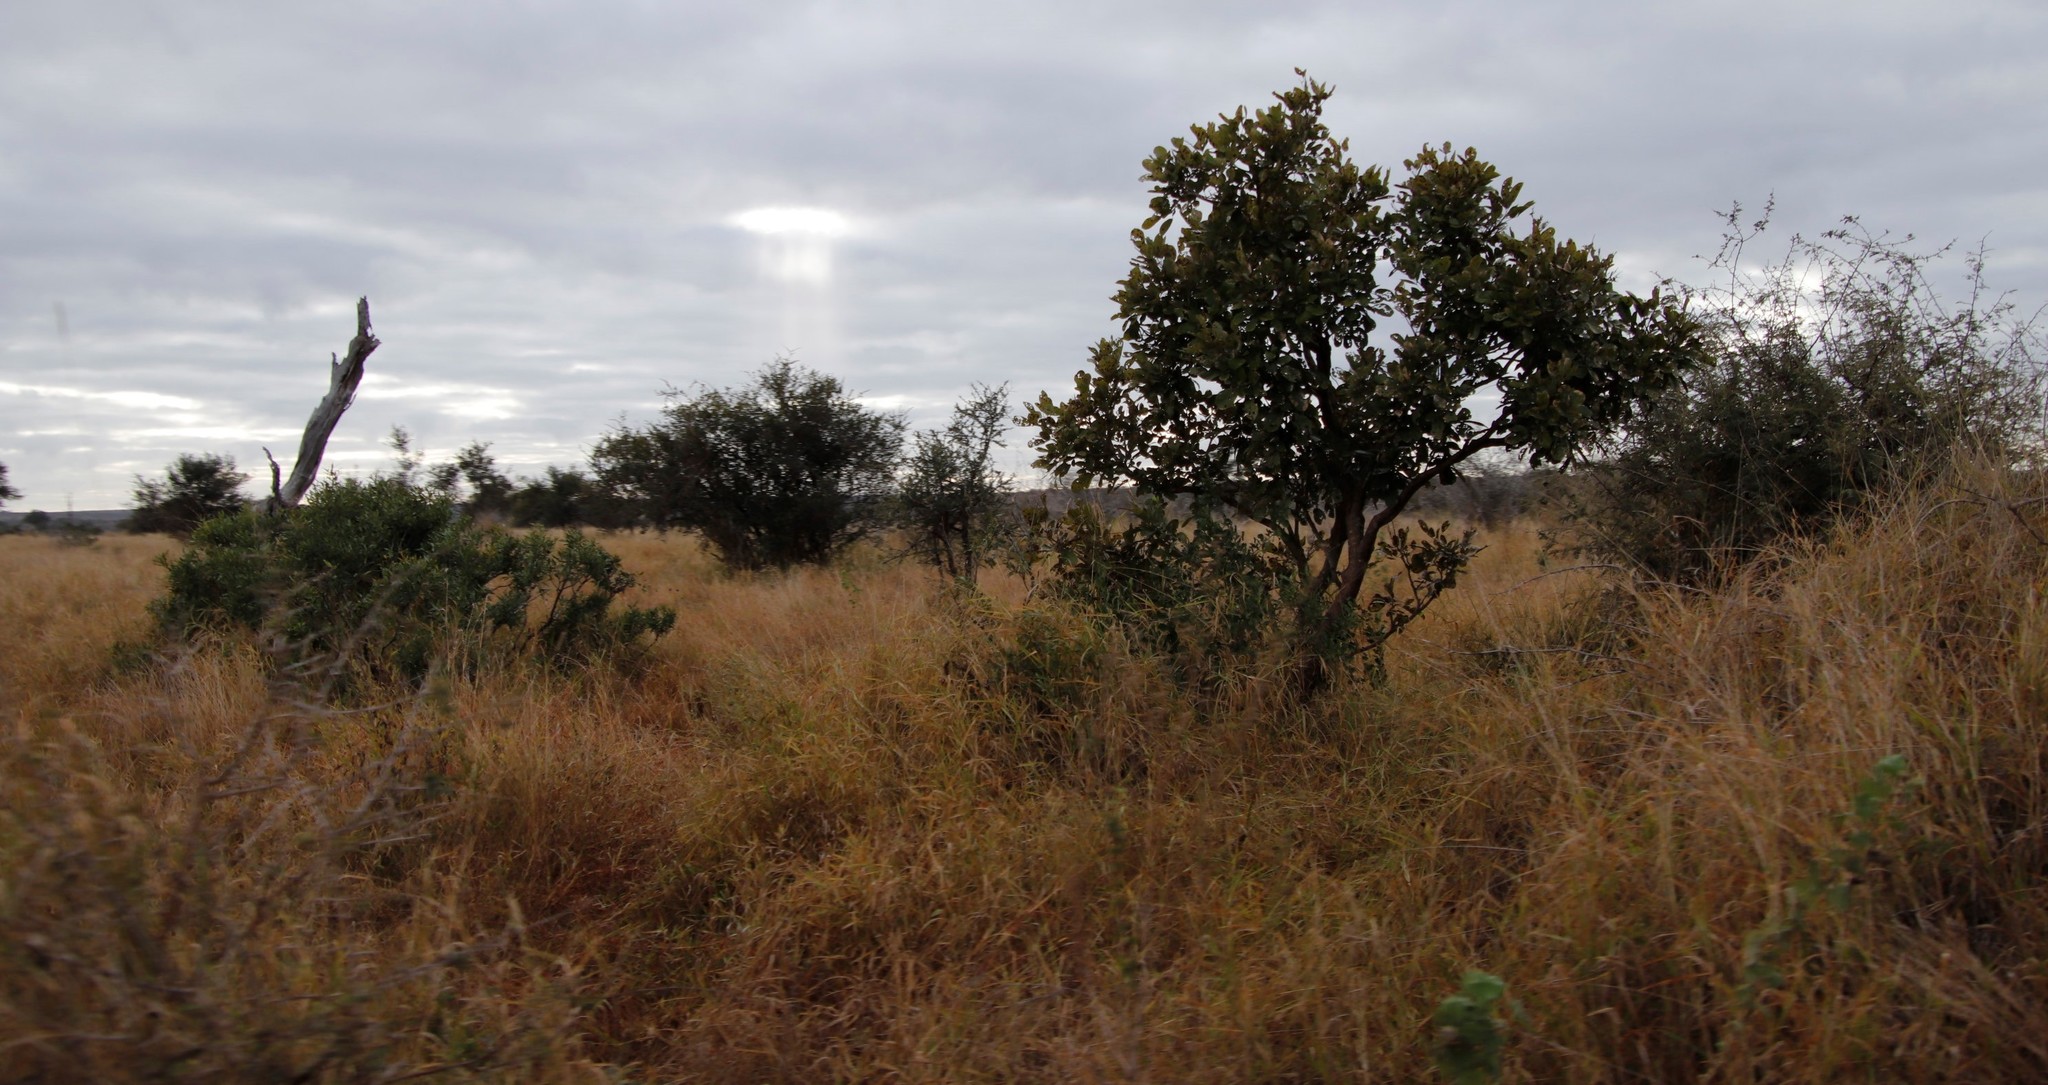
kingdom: Plantae
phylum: Tracheophyta
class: Magnoliopsida
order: Fabales
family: Fabaceae
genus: Philenoptera
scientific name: Philenoptera violacea
